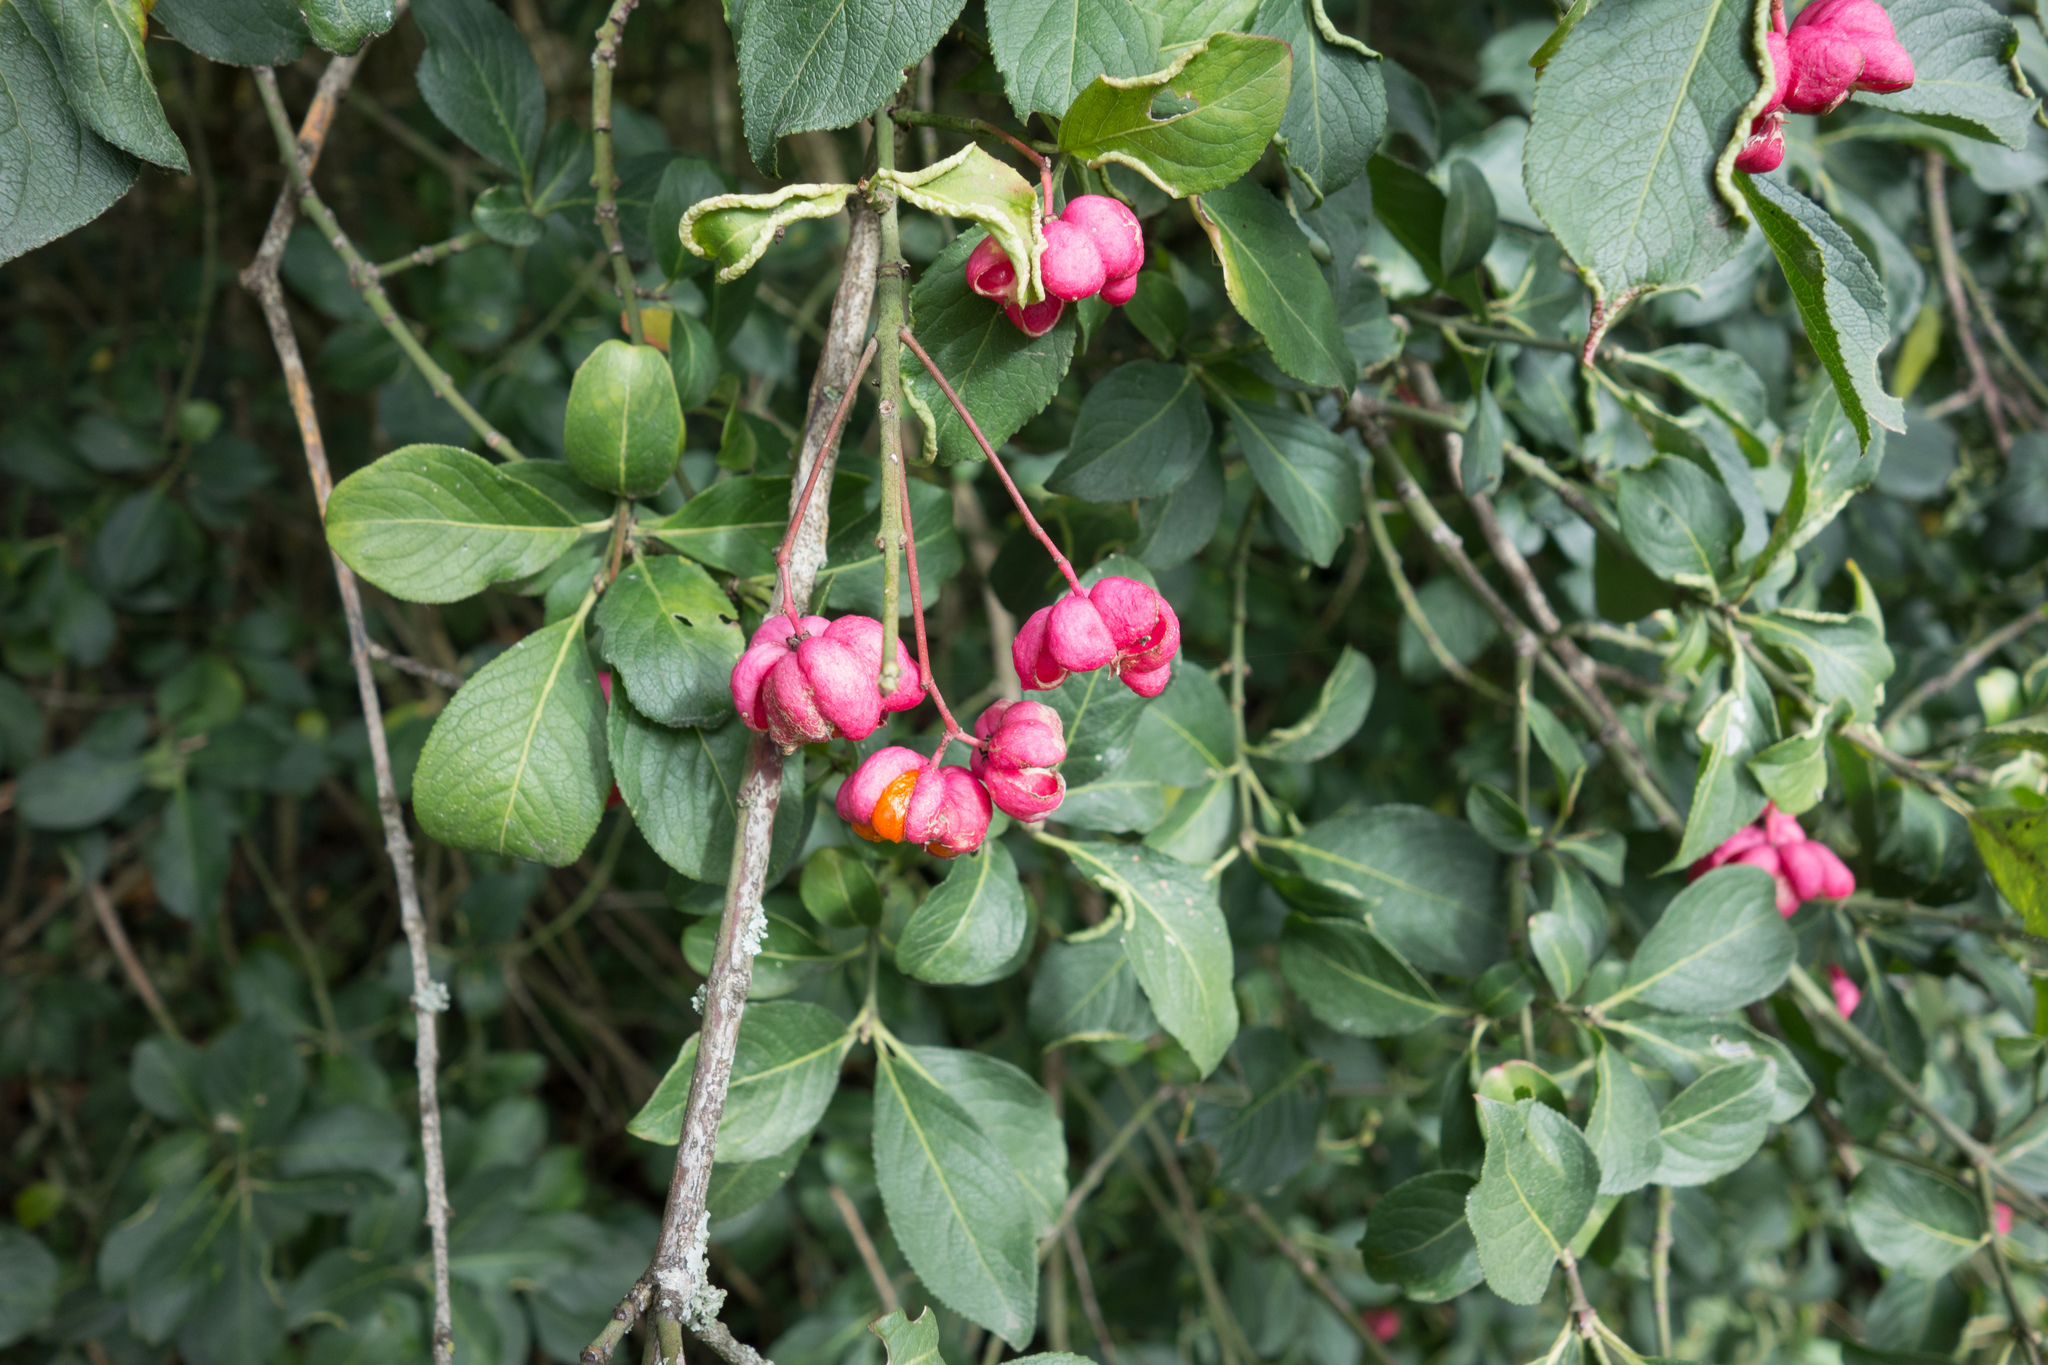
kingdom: Plantae
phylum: Tracheophyta
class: Magnoliopsida
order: Celastrales
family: Celastraceae
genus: Euonymus
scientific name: Euonymus europaeus
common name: Spindle
